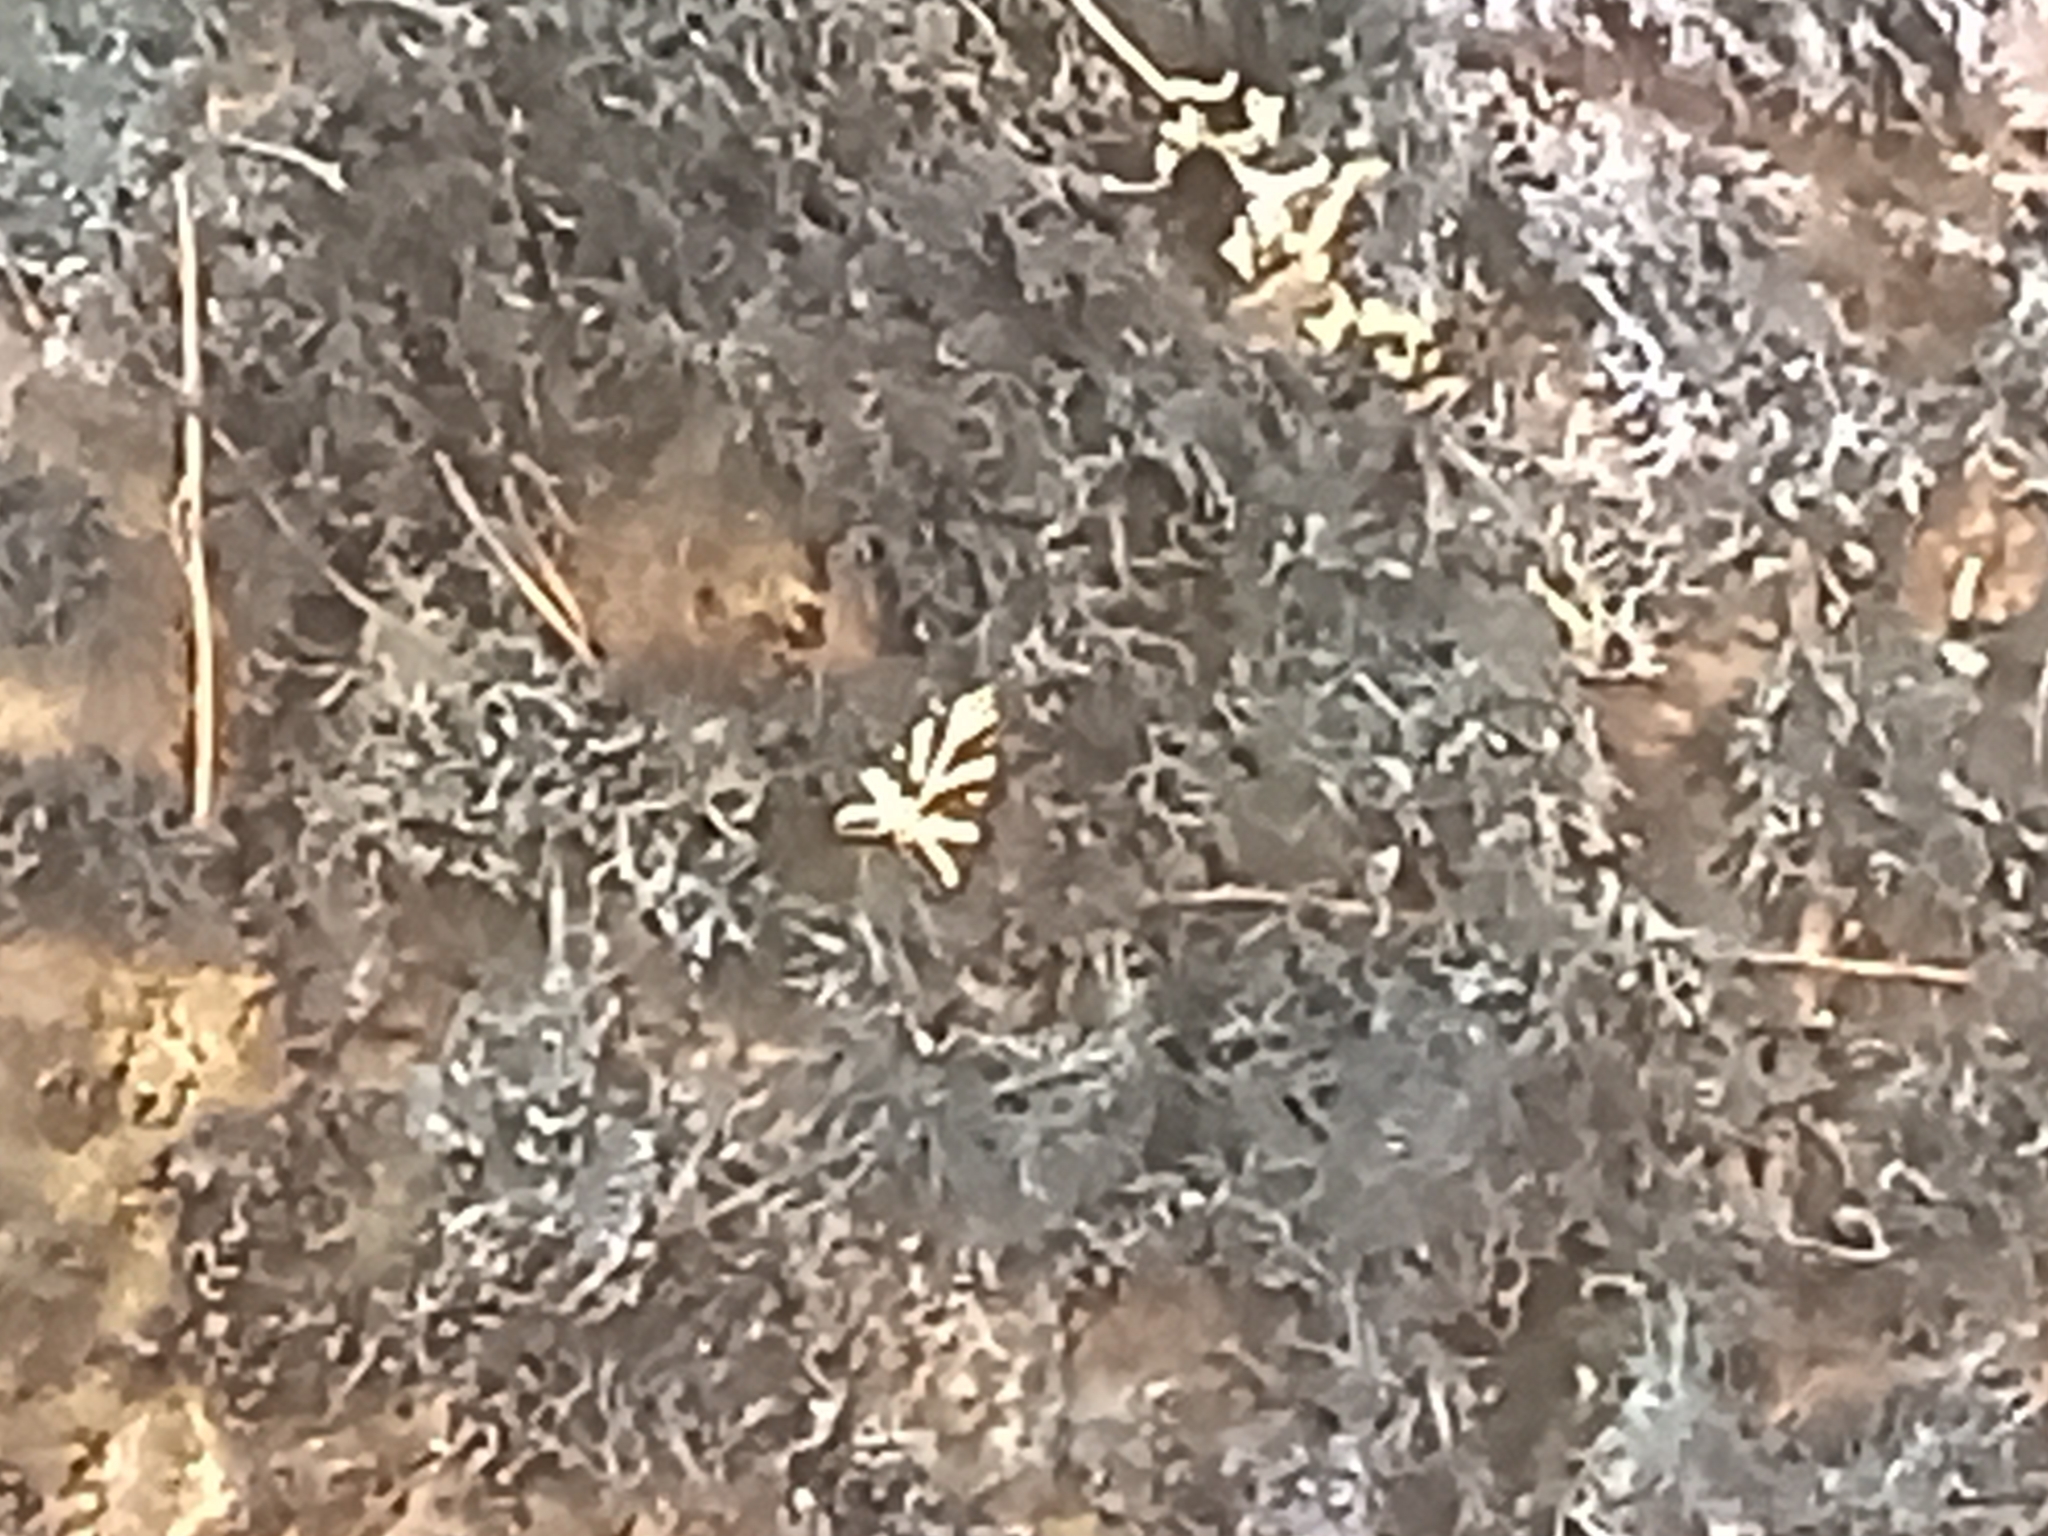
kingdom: Animalia
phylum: Arthropoda
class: Insecta
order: Lepidoptera
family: Erebidae
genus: Euplagia
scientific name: Euplagia quadripunctaria
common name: Jersey tiger
